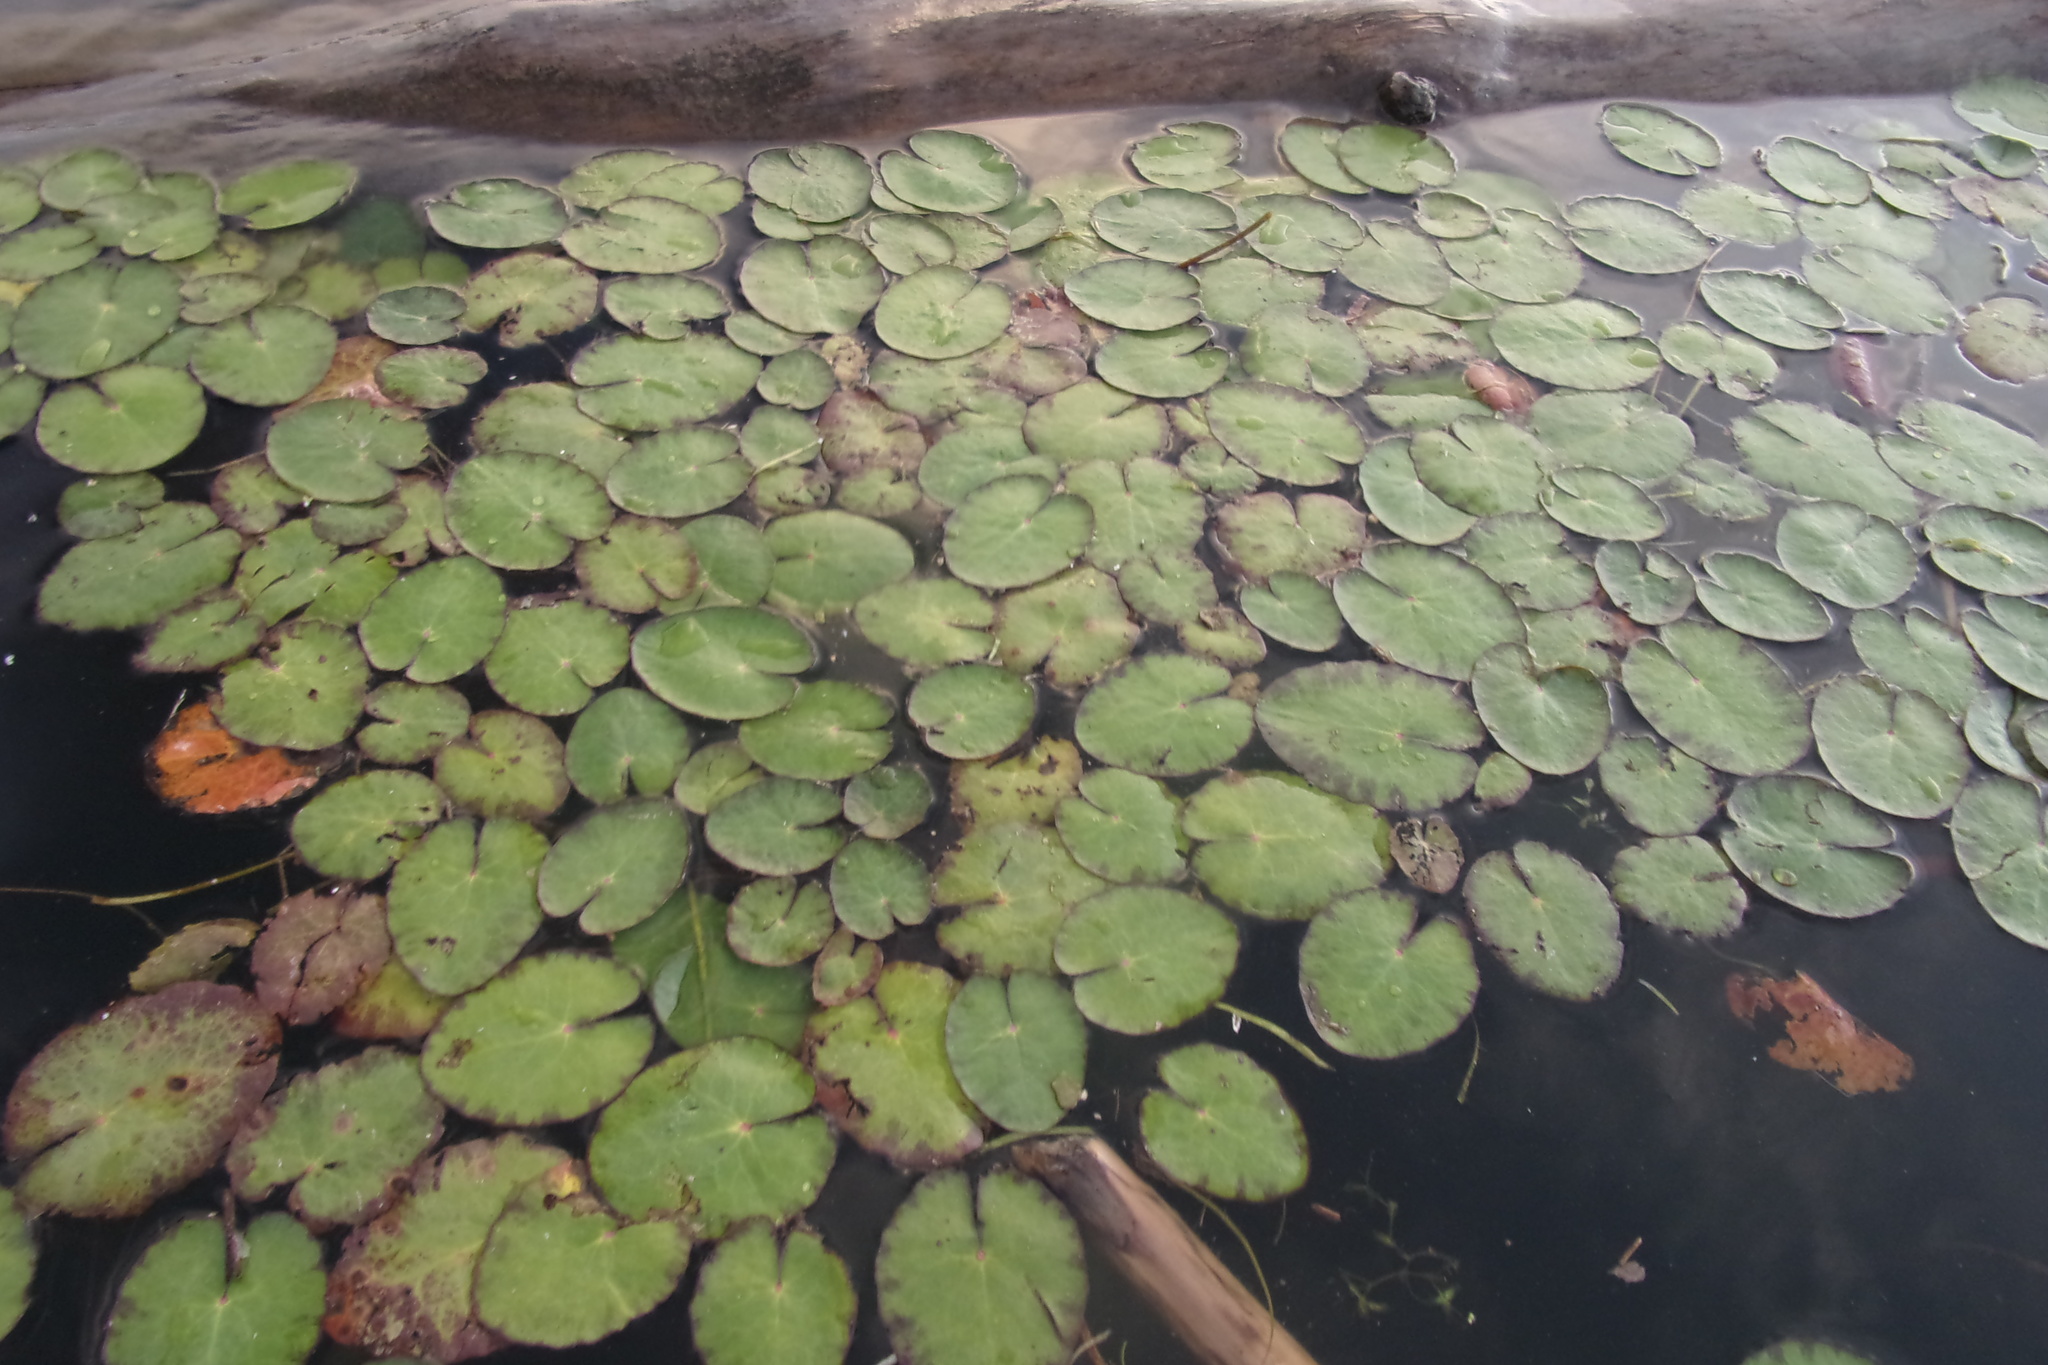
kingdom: Plantae
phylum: Tracheophyta
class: Magnoliopsida
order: Asterales
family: Menyanthaceae
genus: Nymphoides
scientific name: Nymphoides peltata
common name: Fringed water-lily
